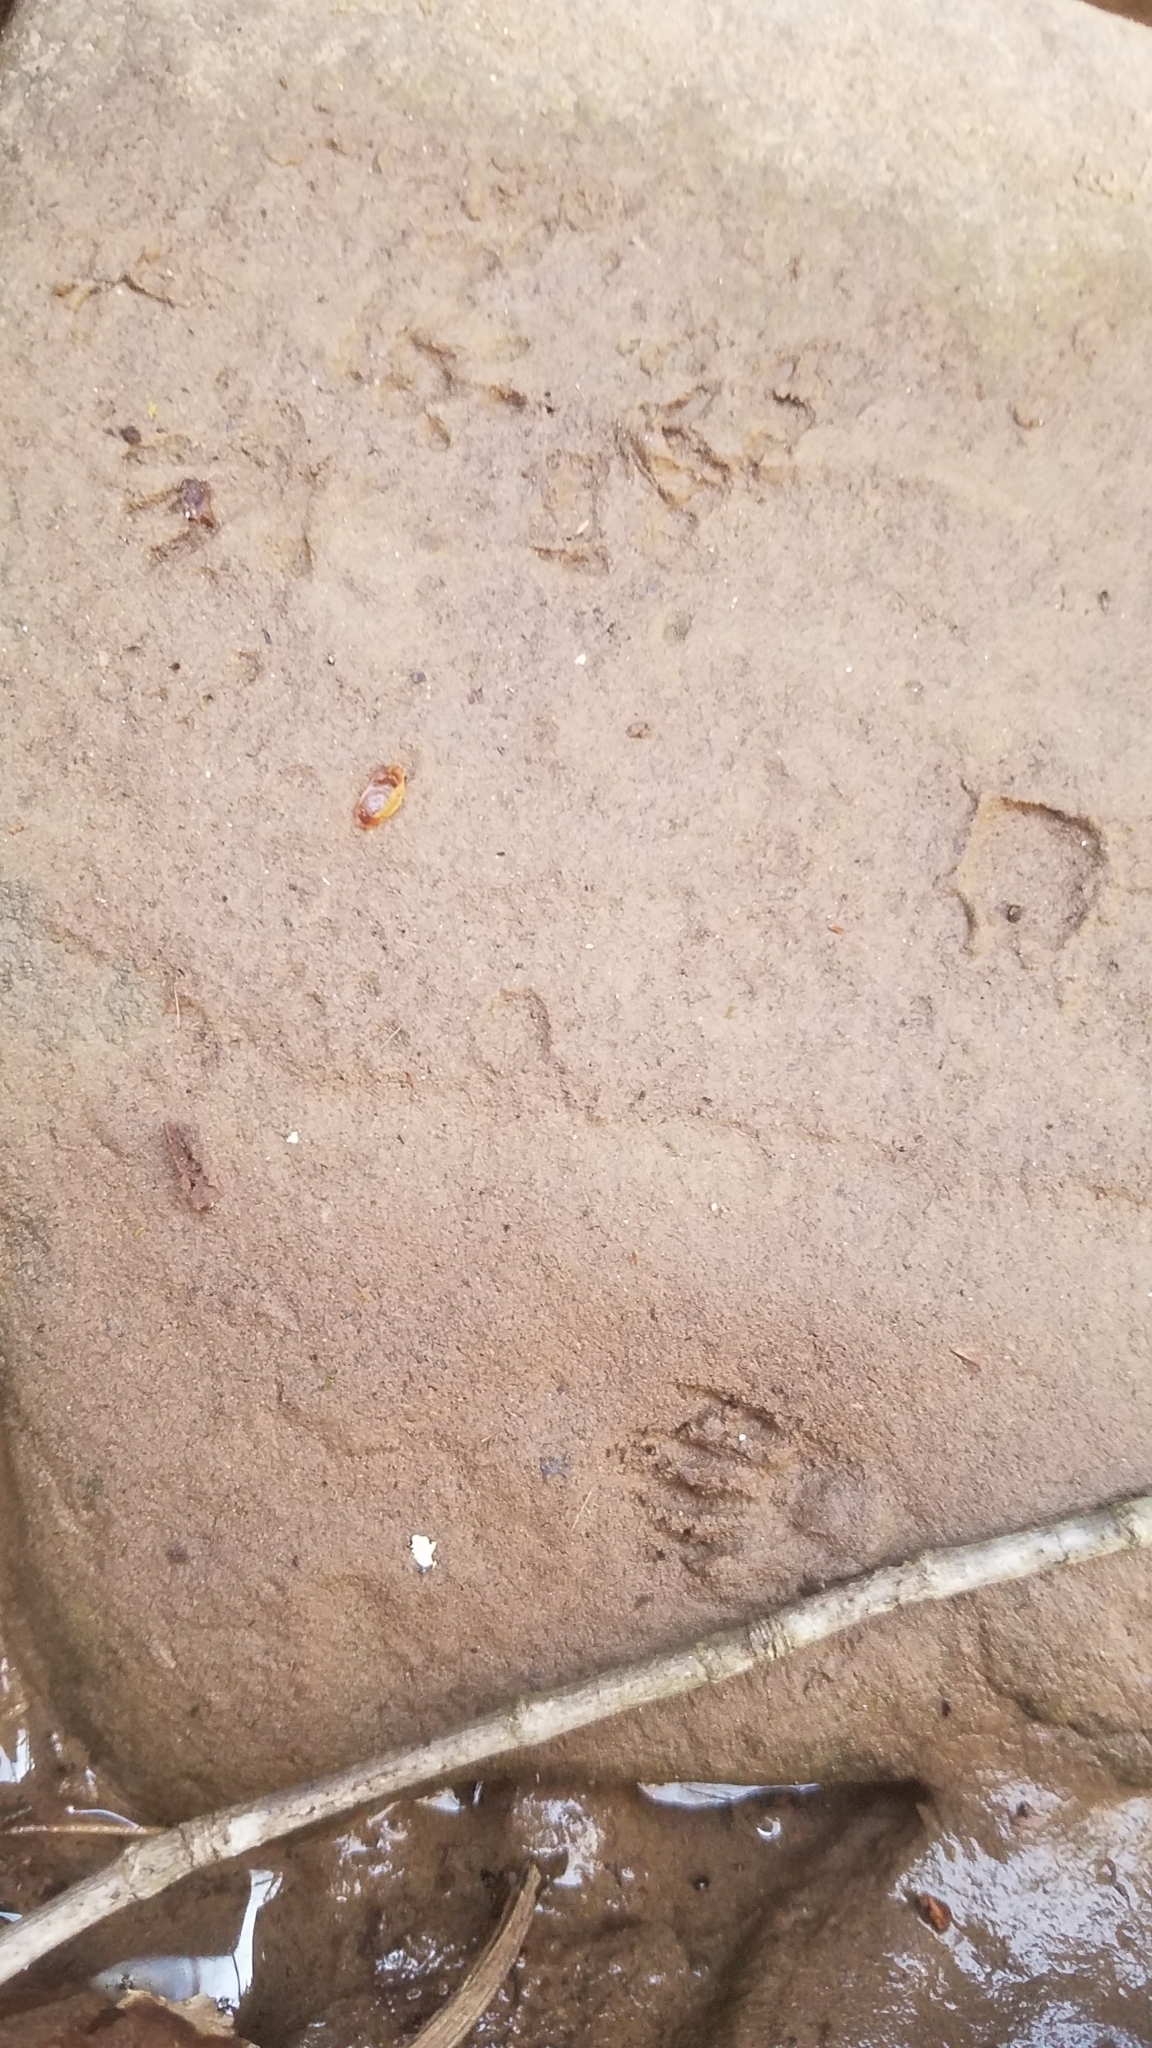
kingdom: Animalia
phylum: Chordata
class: Mammalia
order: Didelphimorphia
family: Didelphidae
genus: Didelphis
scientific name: Didelphis virginiana
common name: Virginia opossum
